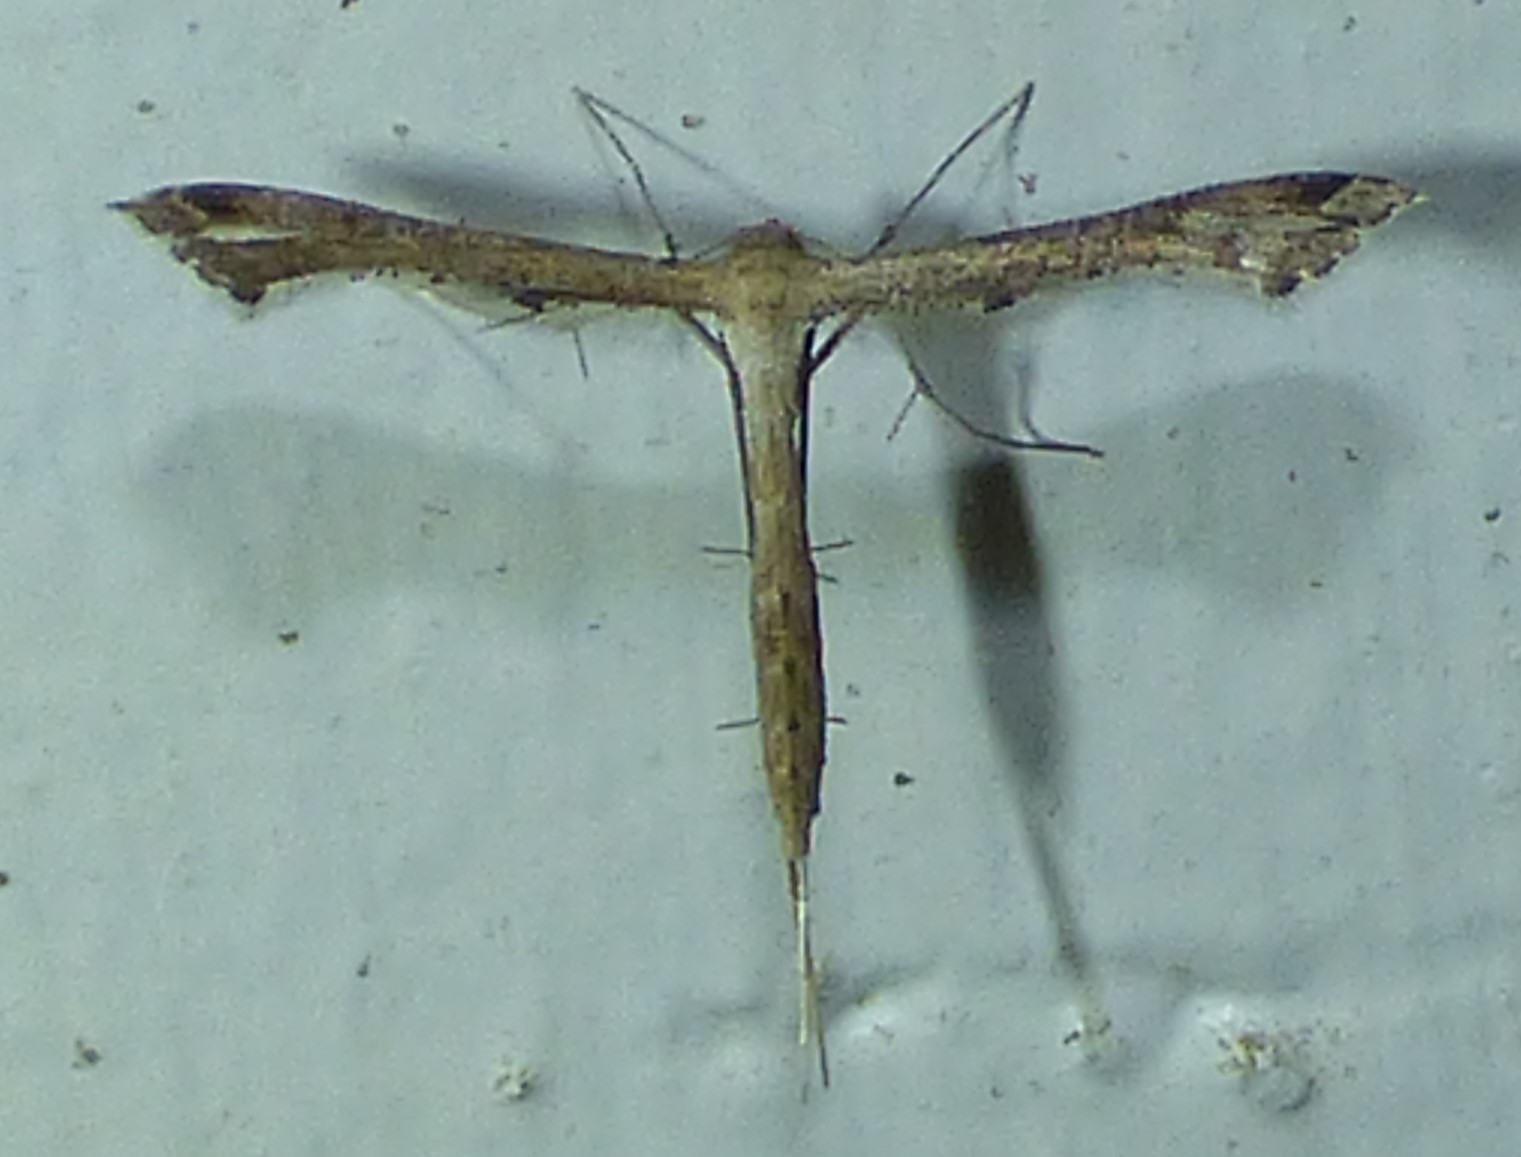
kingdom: Animalia
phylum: Arthropoda
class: Insecta
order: Lepidoptera
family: Pterophoridae
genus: Stenoptilodes
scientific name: Stenoptilodes
